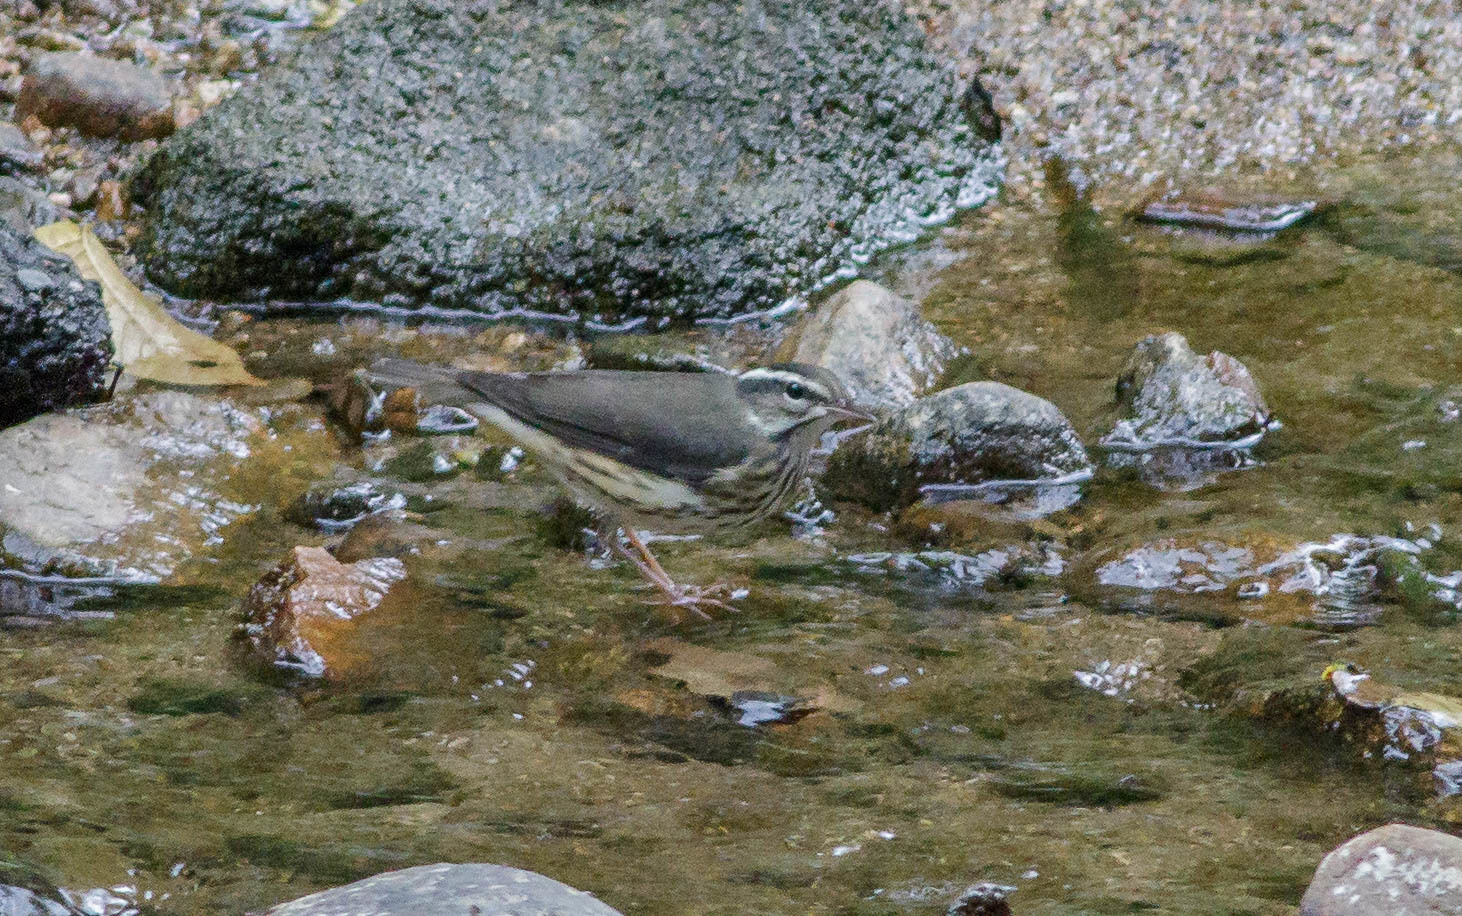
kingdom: Animalia
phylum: Chordata
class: Aves
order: Passeriformes
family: Parulidae
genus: Parkesia
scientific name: Parkesia motacilla
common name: Louisiana waterthrush
